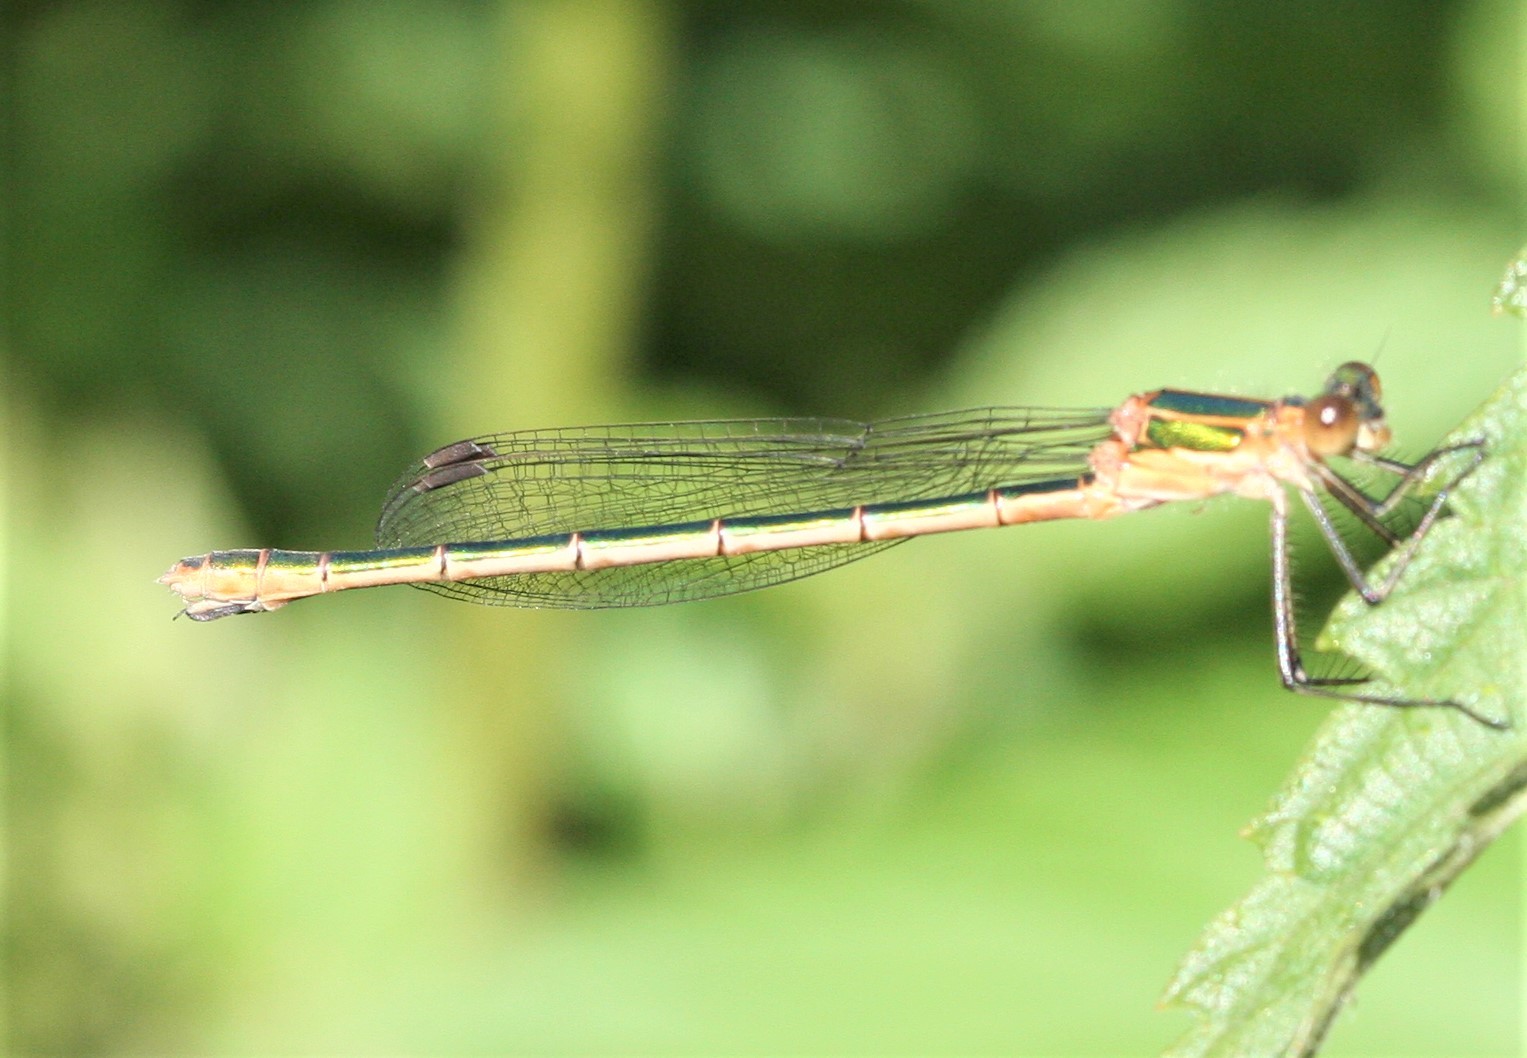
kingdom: Animalia
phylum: Arthropoda
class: Insecta
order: Odonata
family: Lestidae
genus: Lestes
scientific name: Lestes sponsa
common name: Common spreadwing
